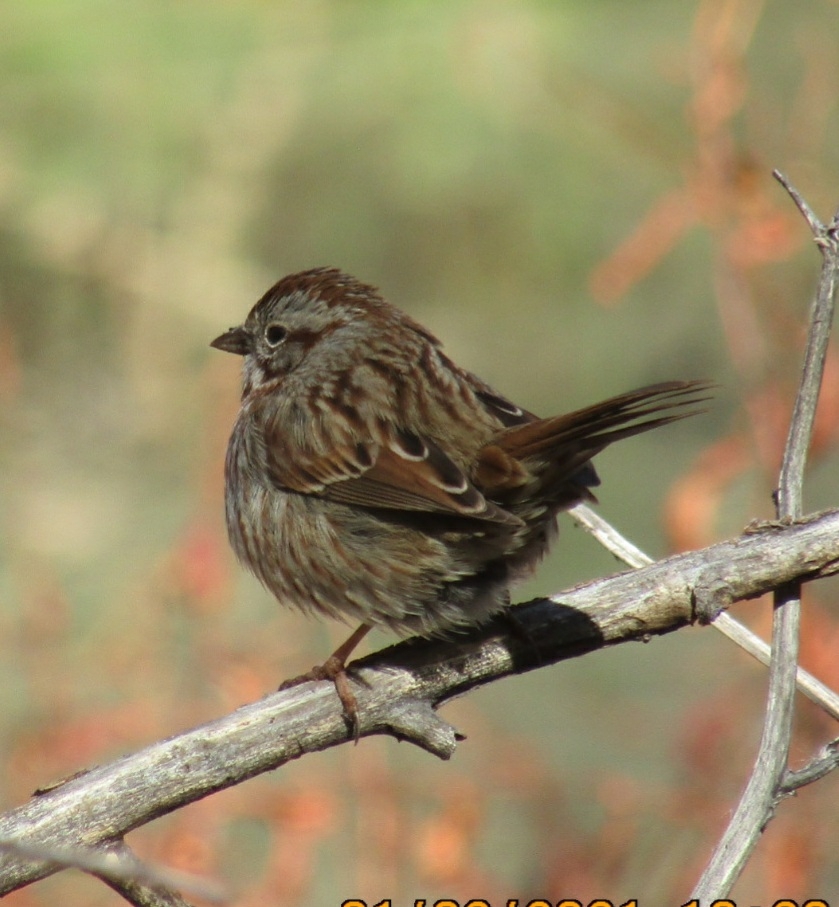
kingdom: Animalia
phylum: Chordata
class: Aves
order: Passeriformes
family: Passerellidae
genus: Melospiza
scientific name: Melospiza melodia
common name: Song sparrow
